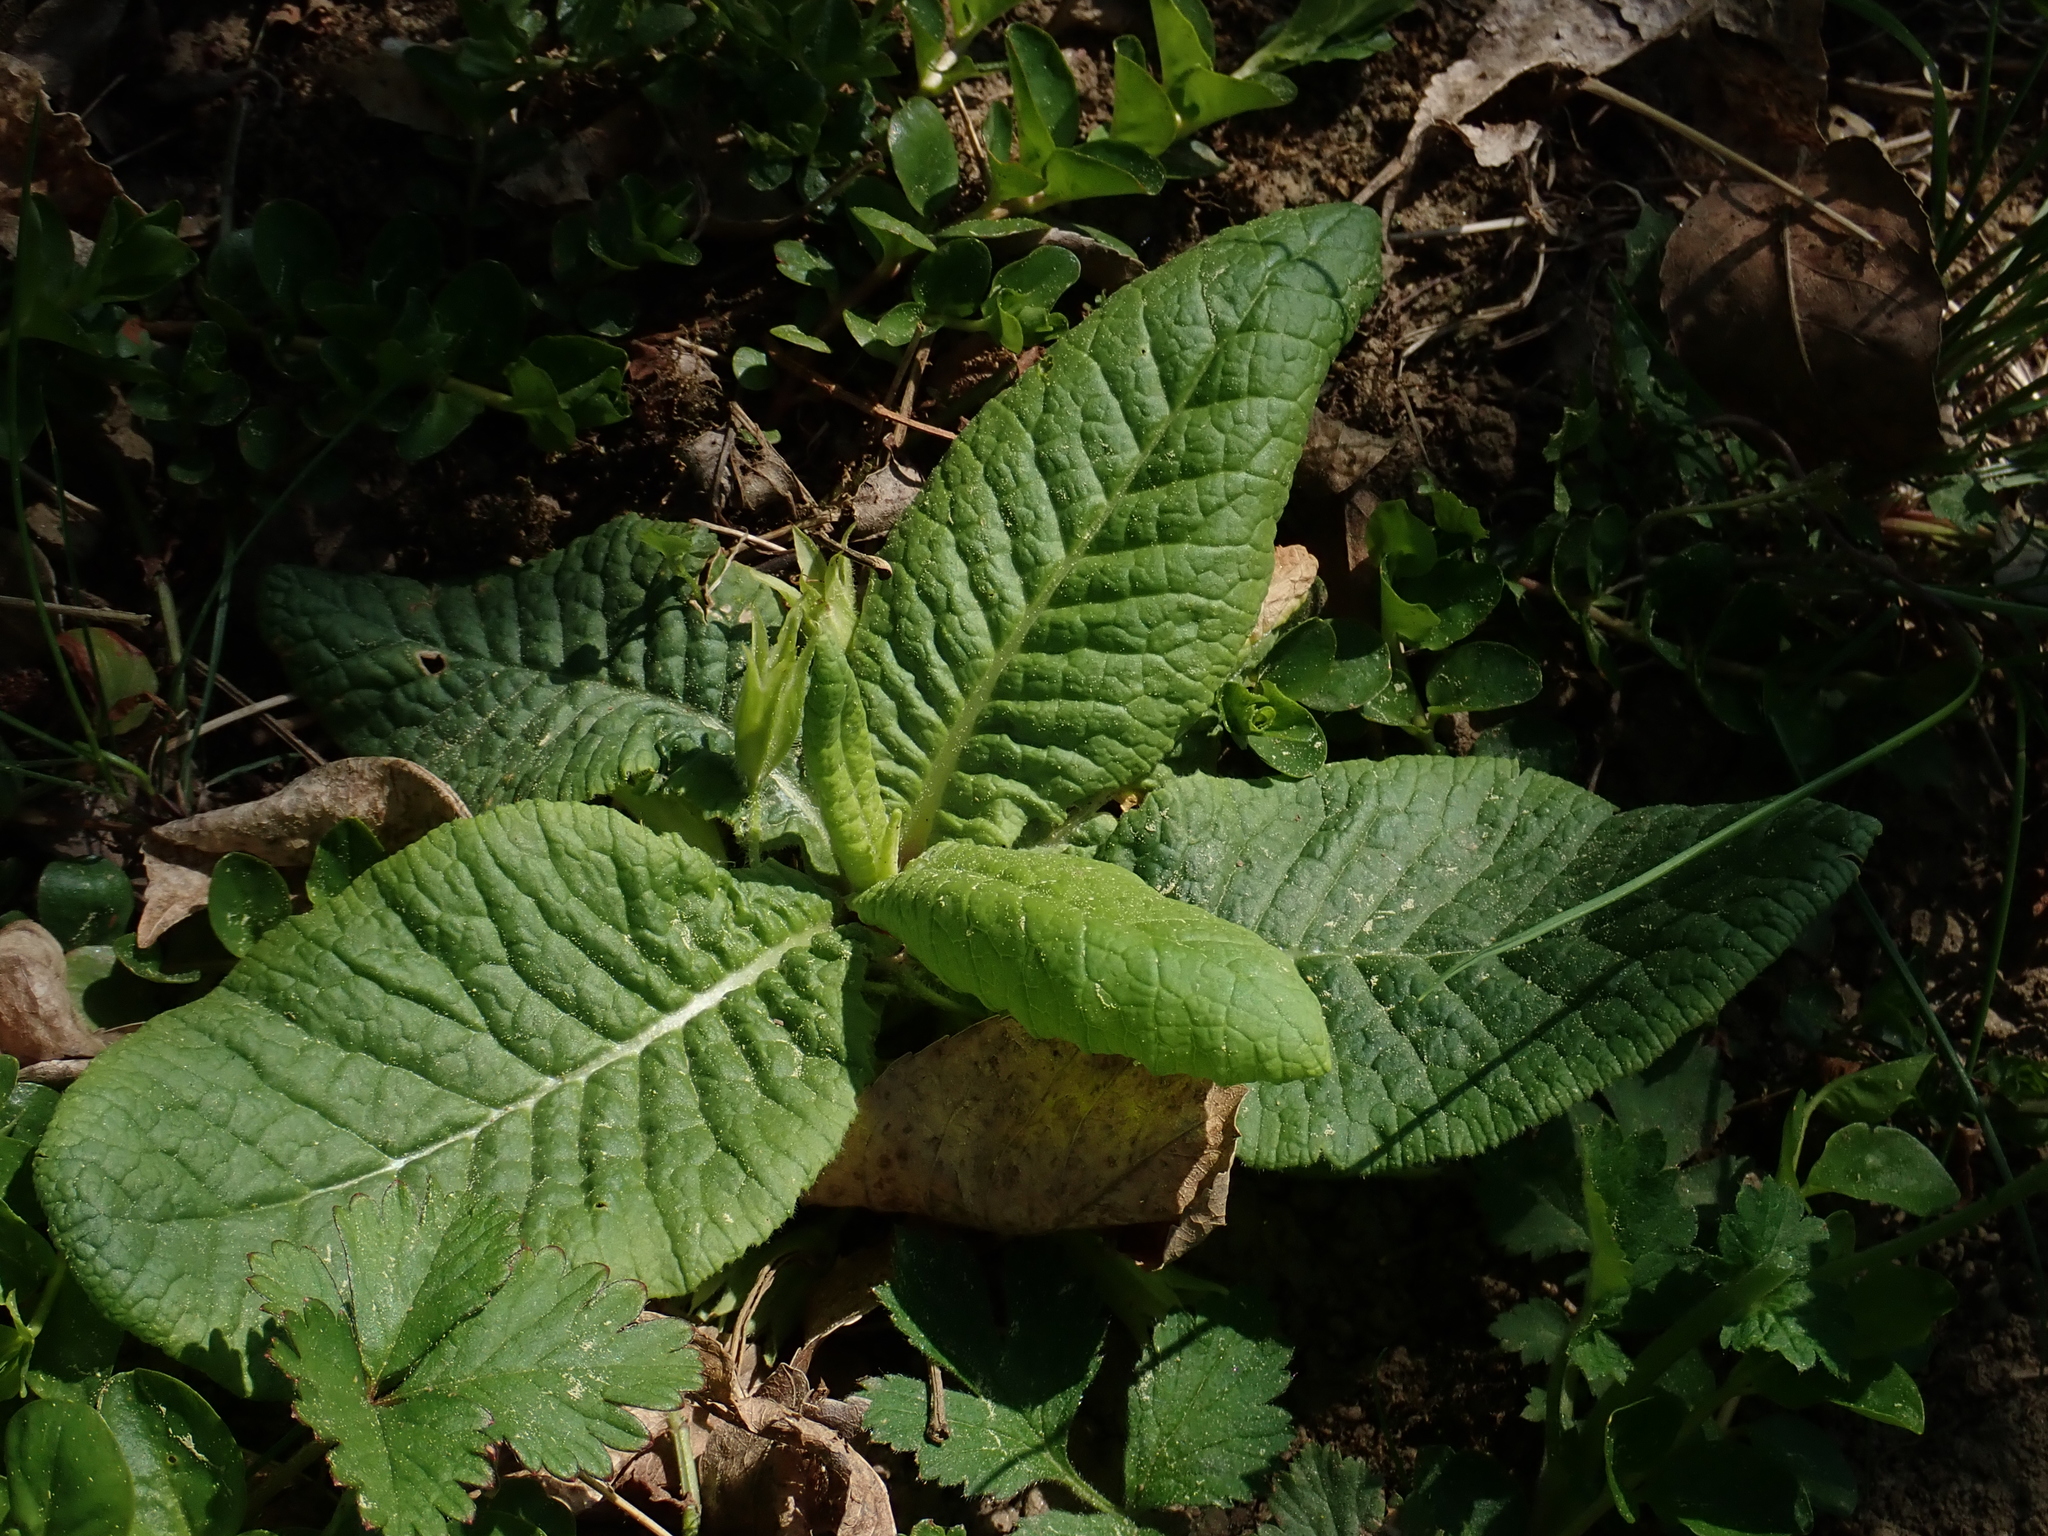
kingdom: Plantae
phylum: Tracheophyta
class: Magnoliopsida
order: Ericales
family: Primulaceae
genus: Primula
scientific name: Primula vulgaris
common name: Primrose
